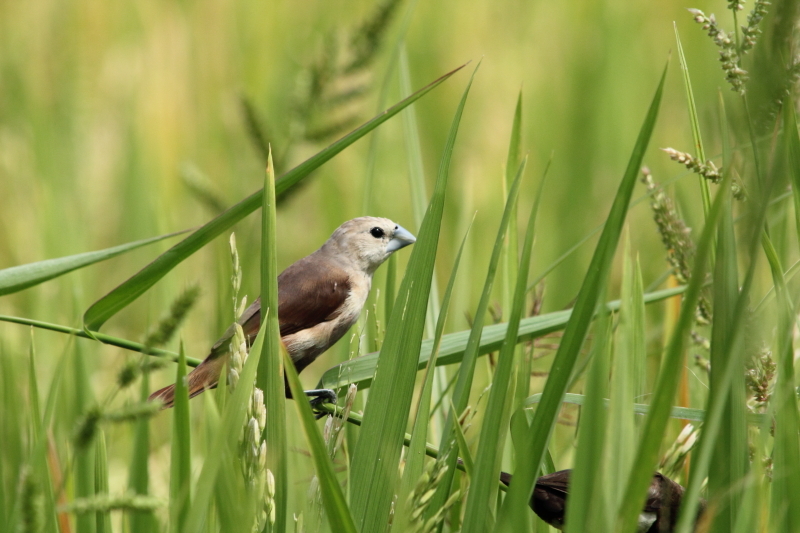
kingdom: Animalia
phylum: Chordata
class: Aves
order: Passeriformes
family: Estrildidae
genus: Lonchura
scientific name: Lonchura maja
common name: White-headed munia
